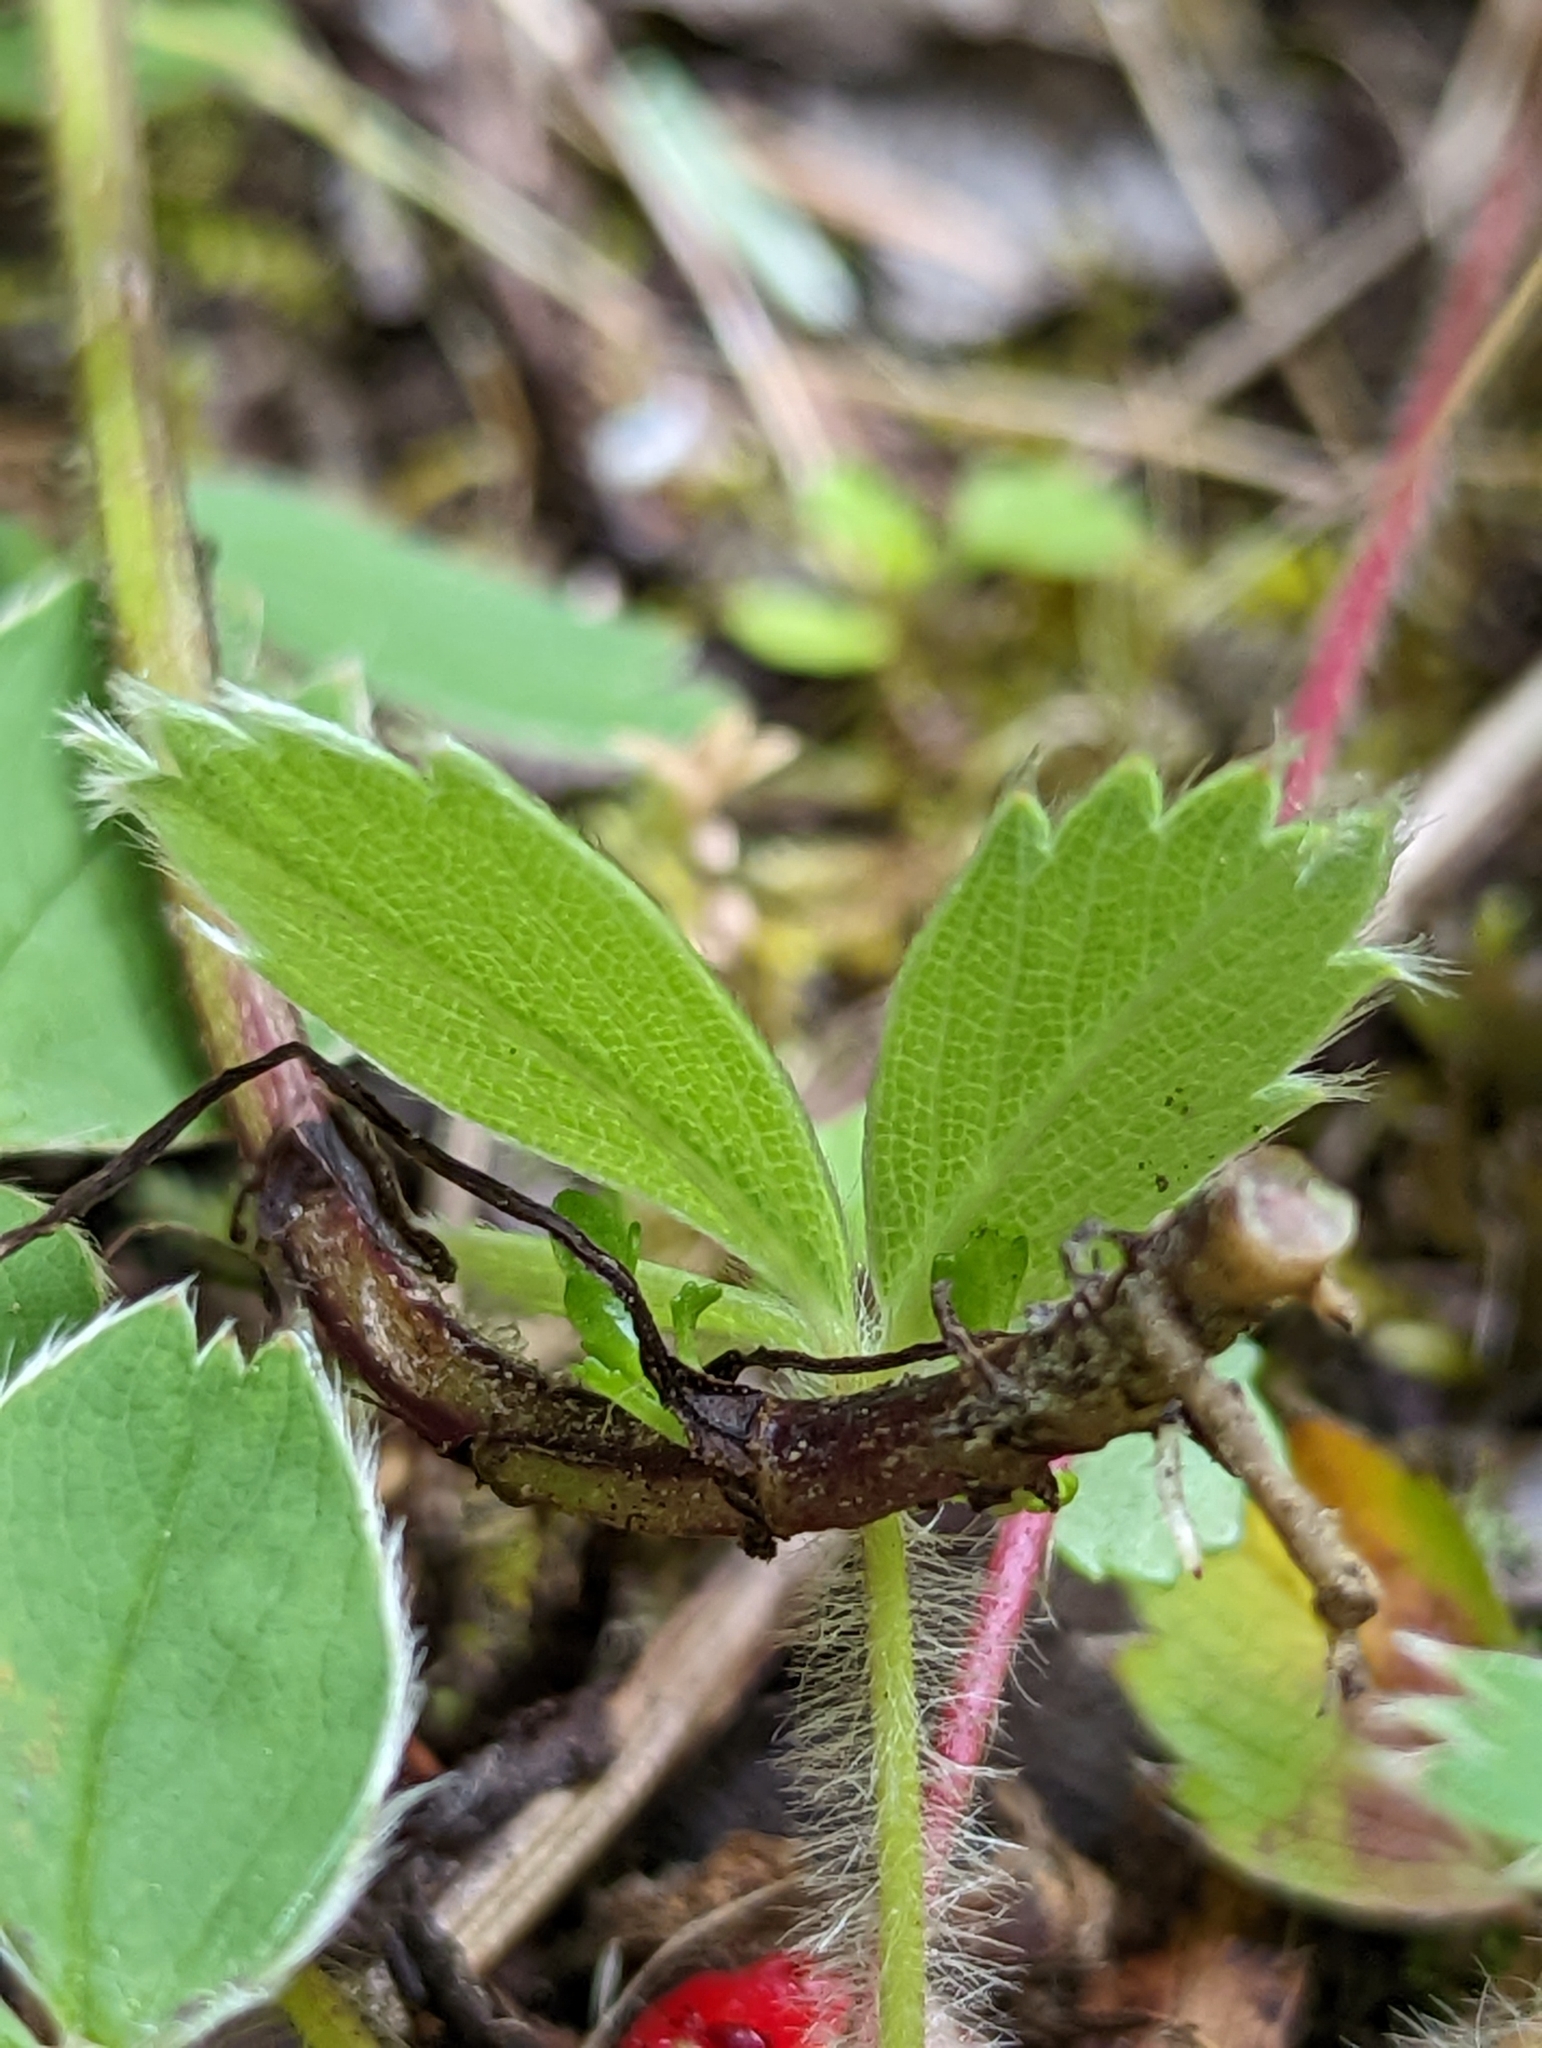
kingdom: Plantae
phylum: Tracheophyta
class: Magnoliopsida
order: Rosales
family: Rosaceae
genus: Fragaria
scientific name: Fragaria virginiana
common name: Thickleaved wild strawberry
